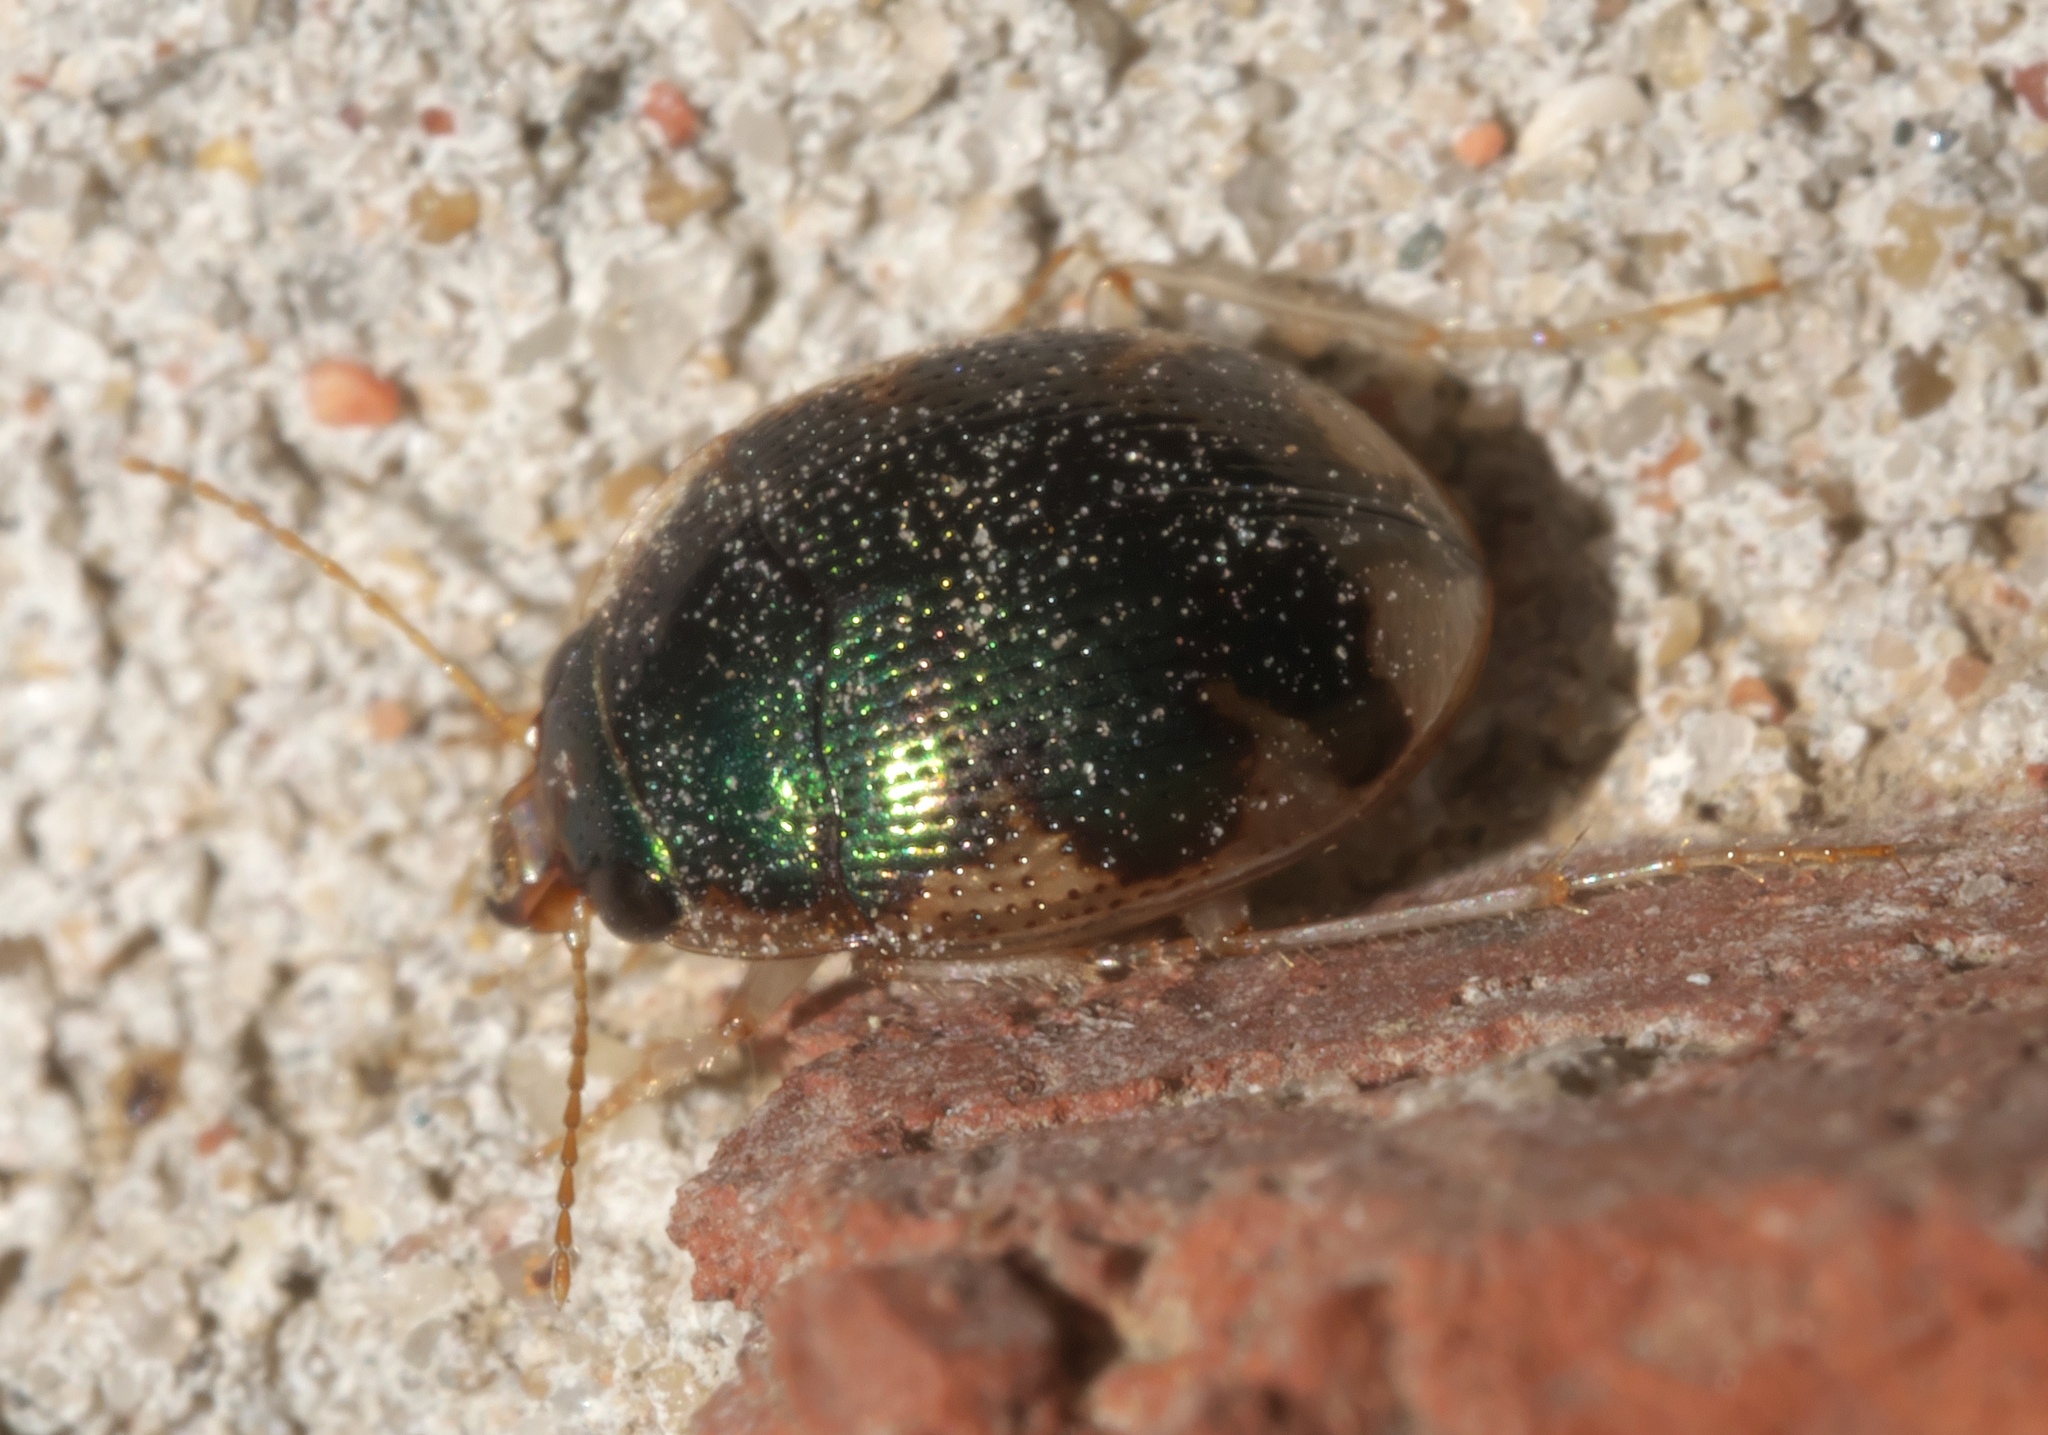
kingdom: Animalia
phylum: Arthropoda
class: Insecta
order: Coleoptera
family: Carabidae
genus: Omophron
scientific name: Omophron nitidum
